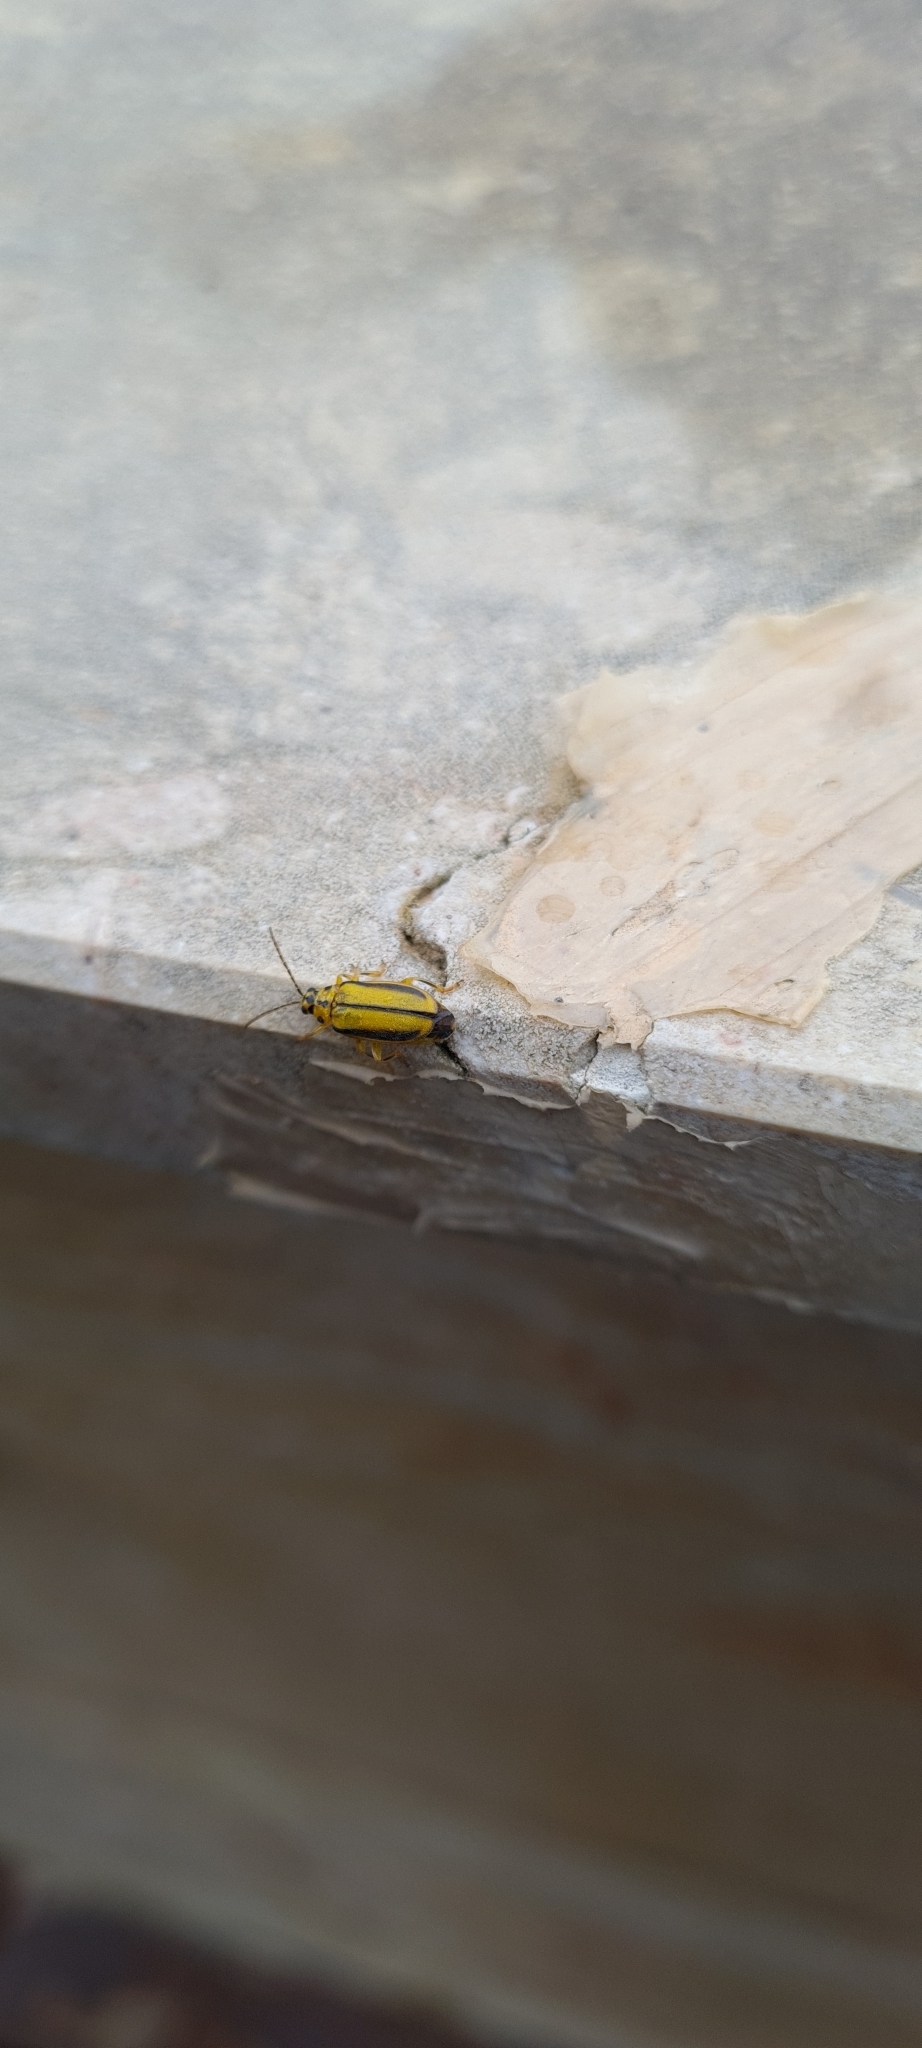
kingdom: Animalia
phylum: Arthropoda
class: Insecta
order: Coleoptera
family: Chrysomelidae
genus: Xanthogaleruca
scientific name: Xanthogaleruca luteola
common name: Elm leaf beetle
